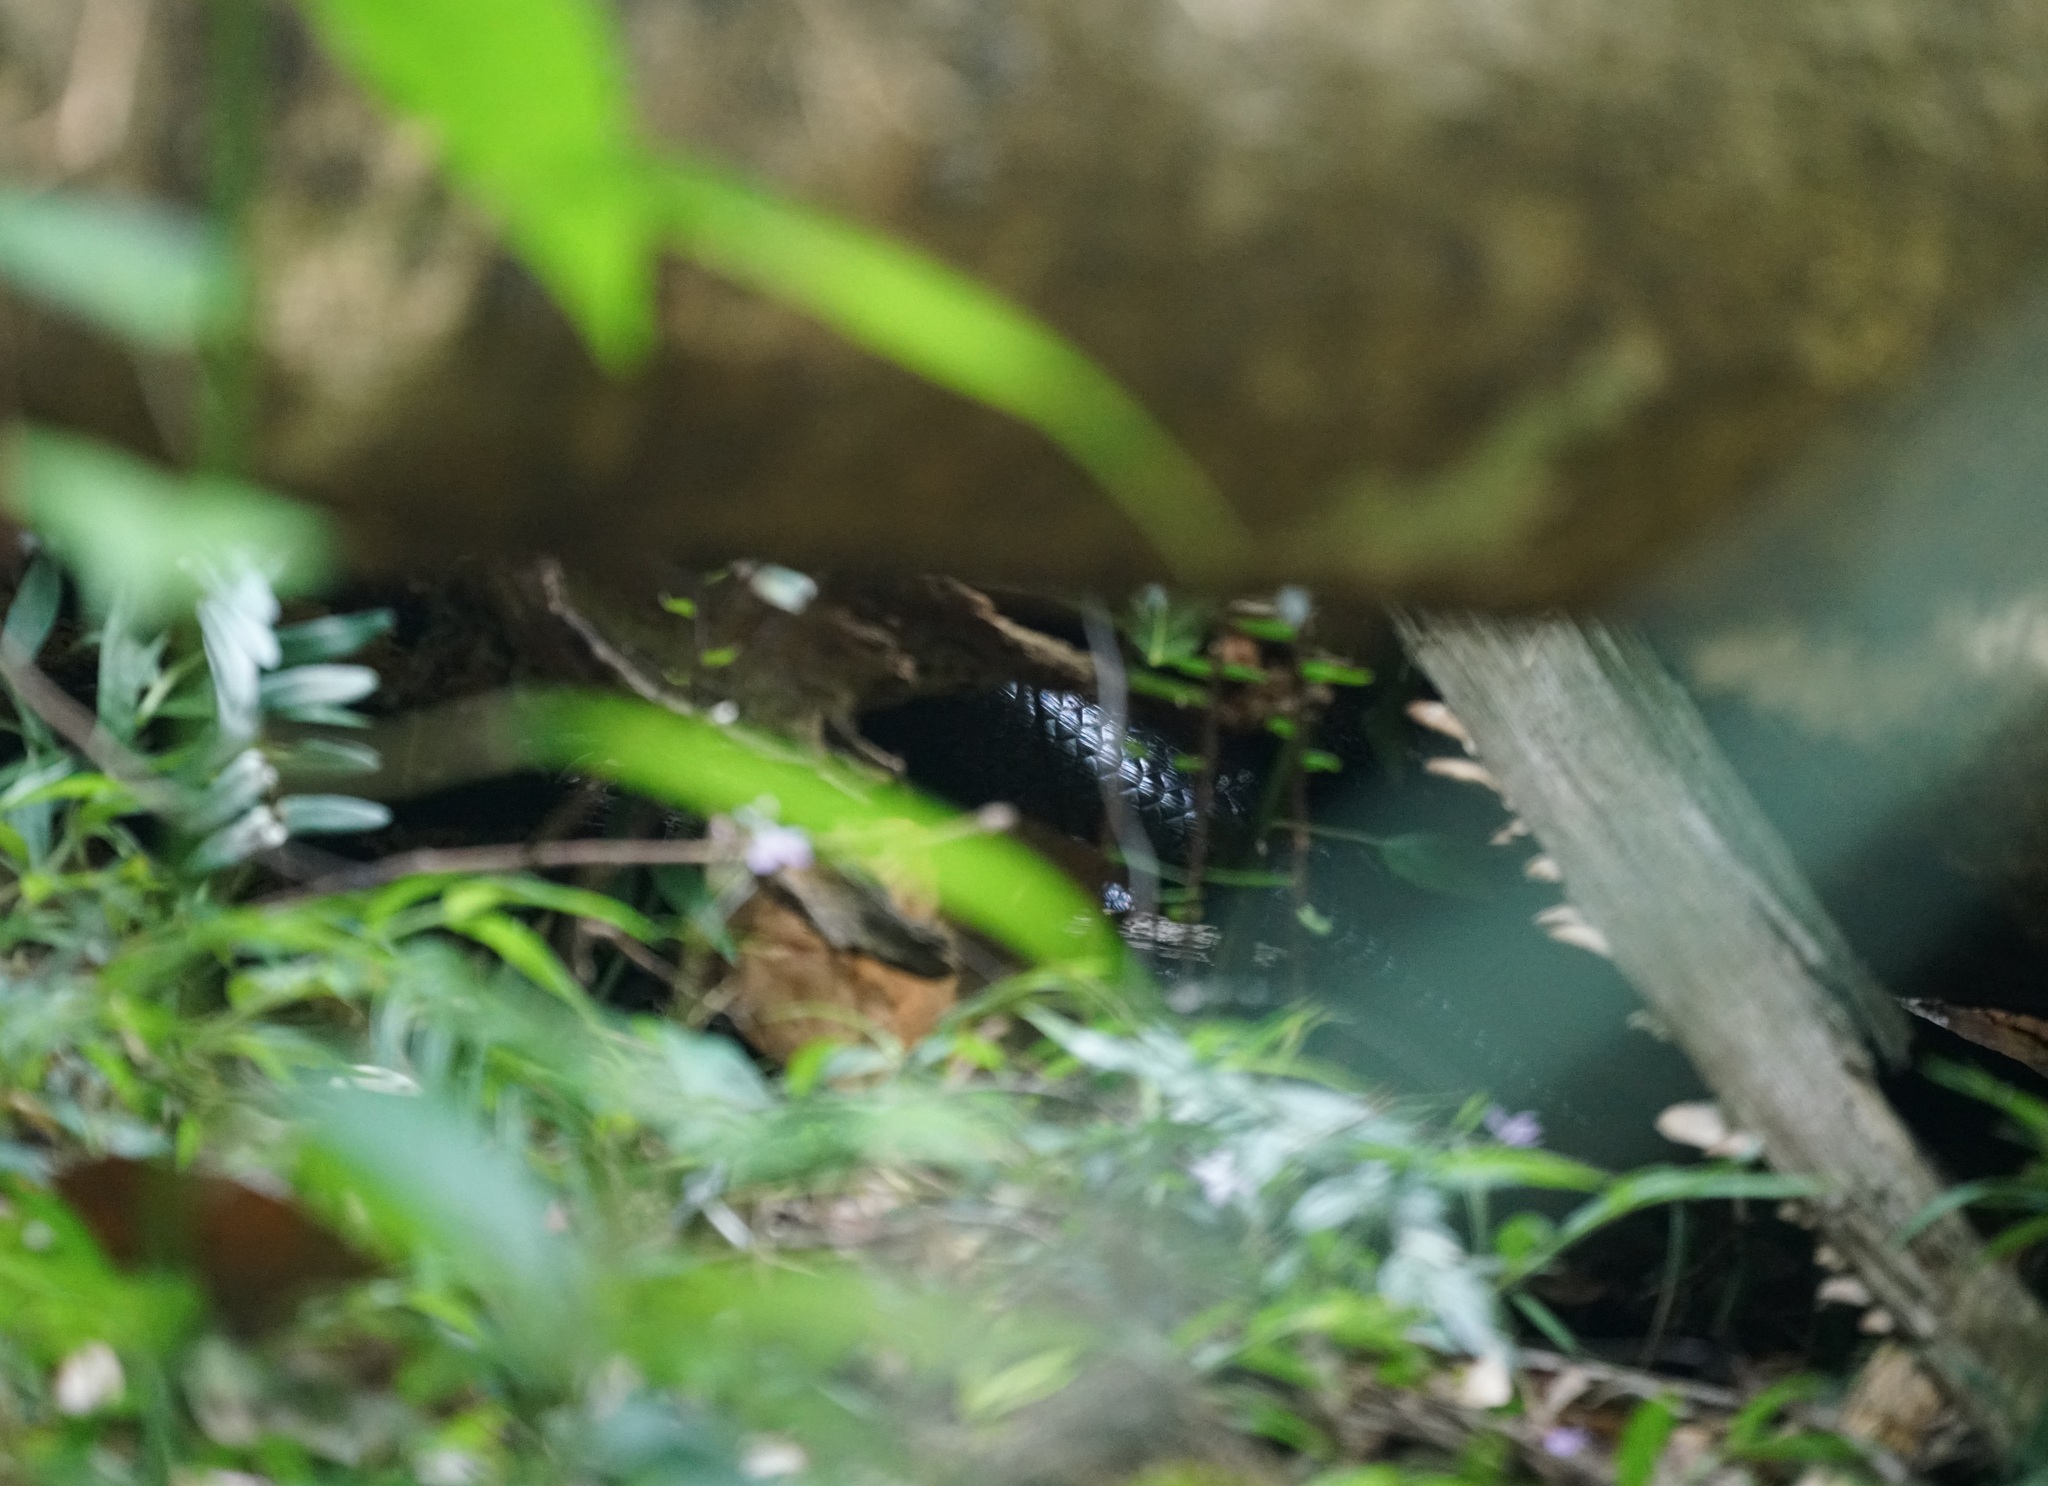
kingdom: Animalia
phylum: Chordata
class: Squamata
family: Scincidae
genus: Bellatorias
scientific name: Bellatorias major
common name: Land mullet
